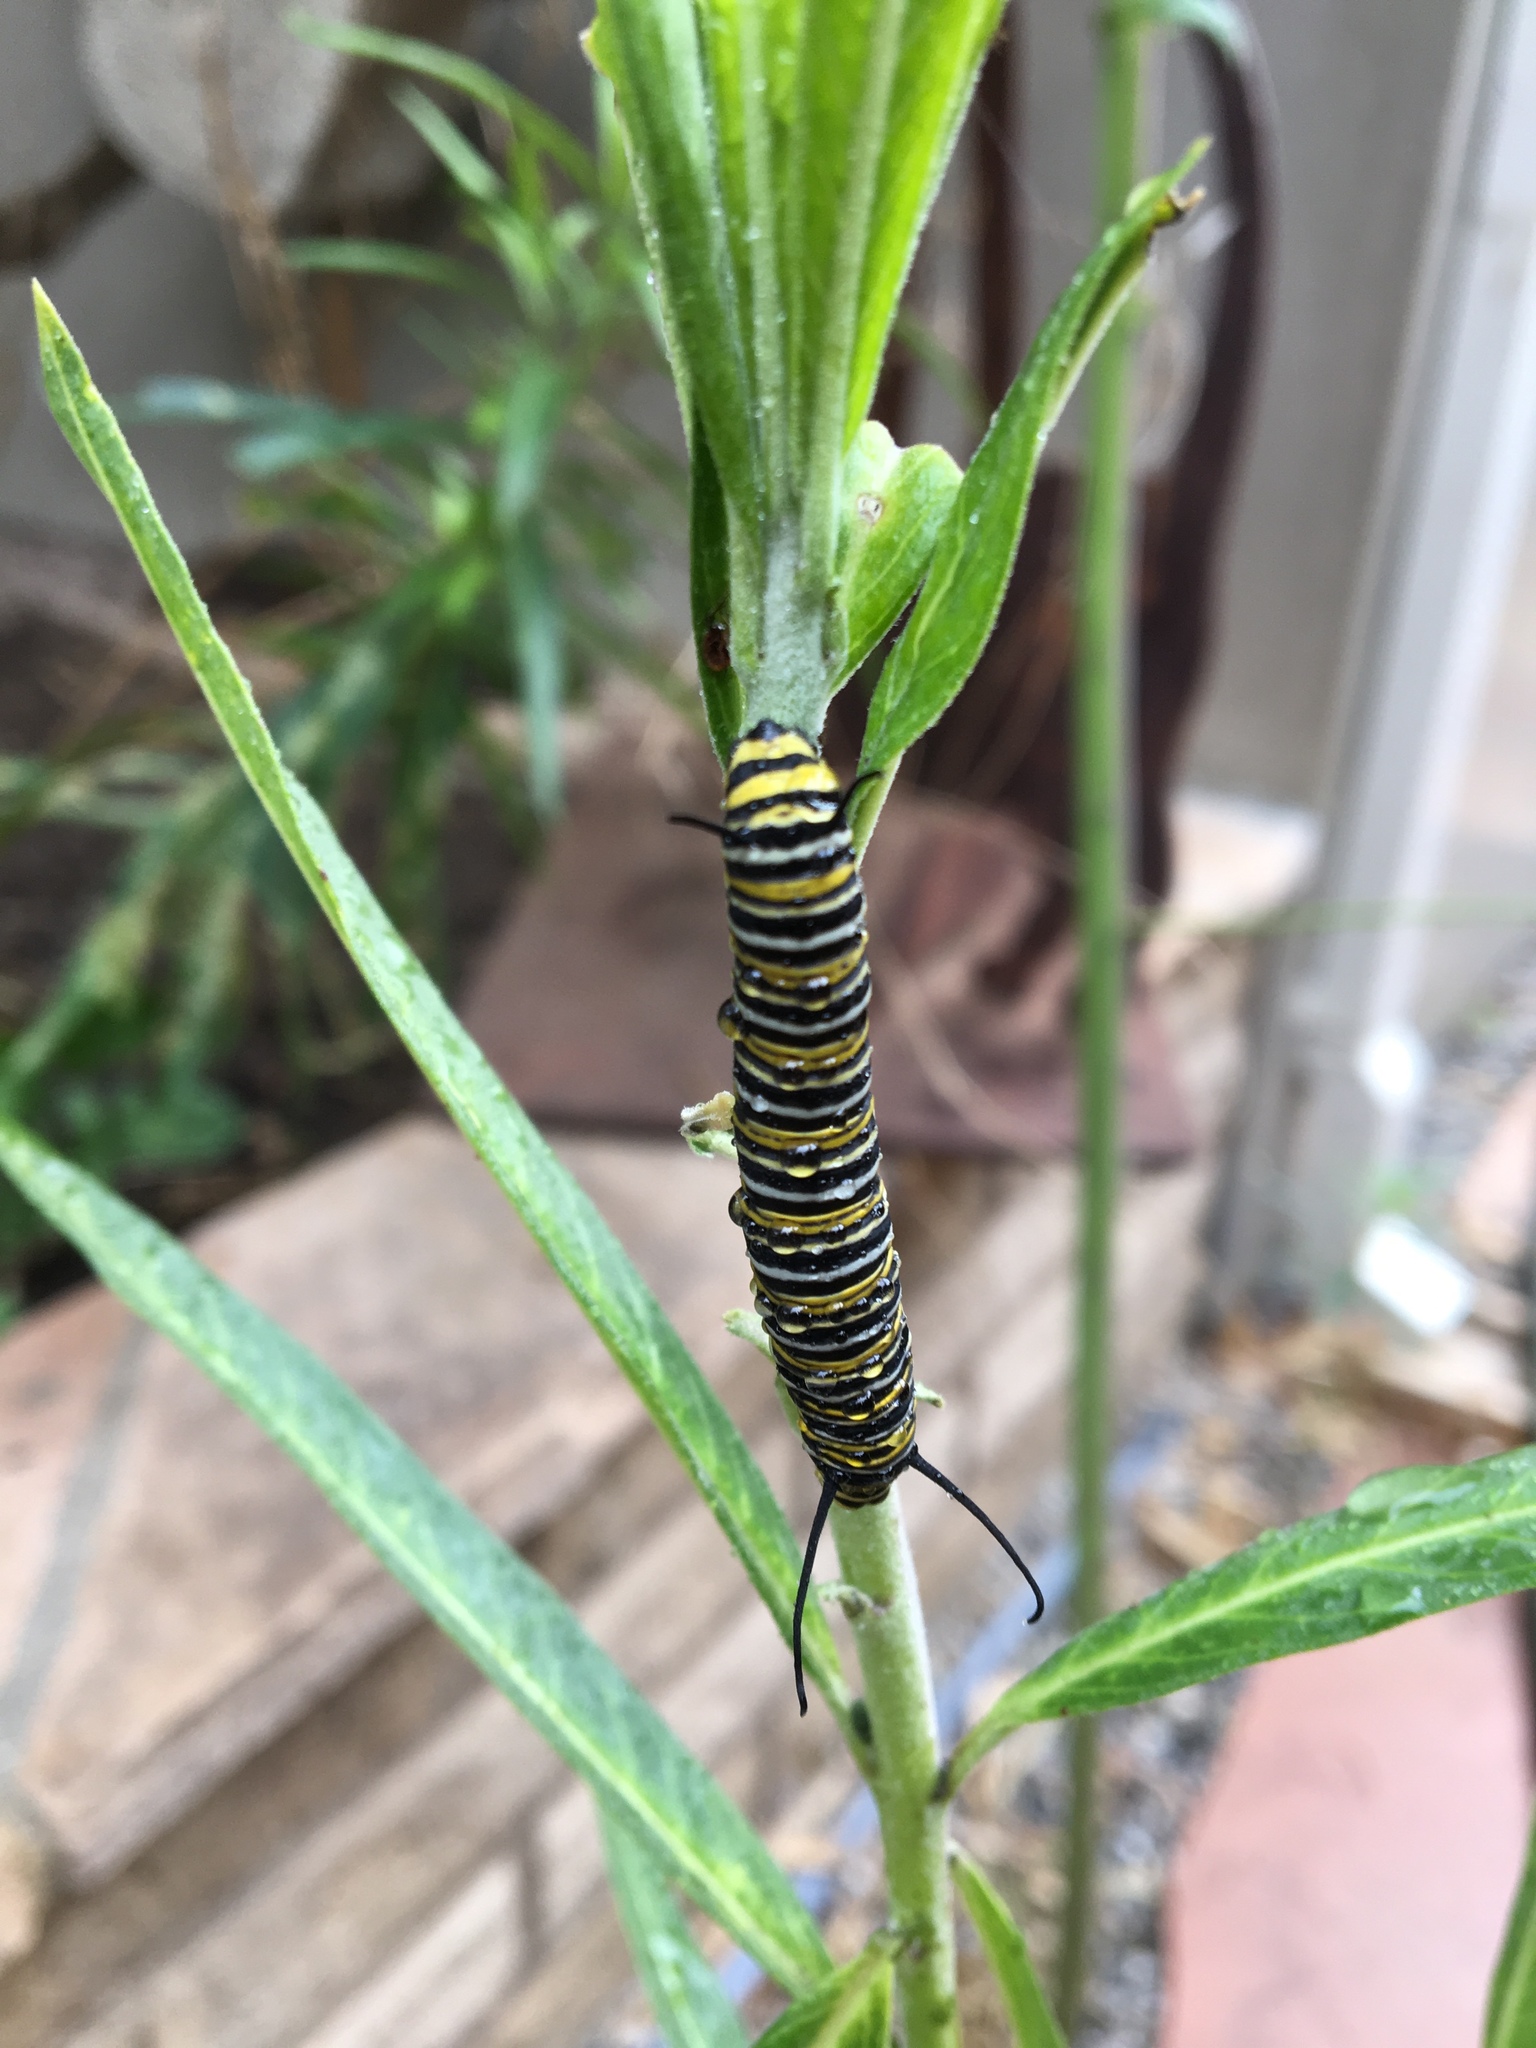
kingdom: Animalia
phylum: Arthropoda
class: Insecta
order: Lepidoptera
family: Nymphalidae
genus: Danaus
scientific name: Danaus plexippus
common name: Monarch
